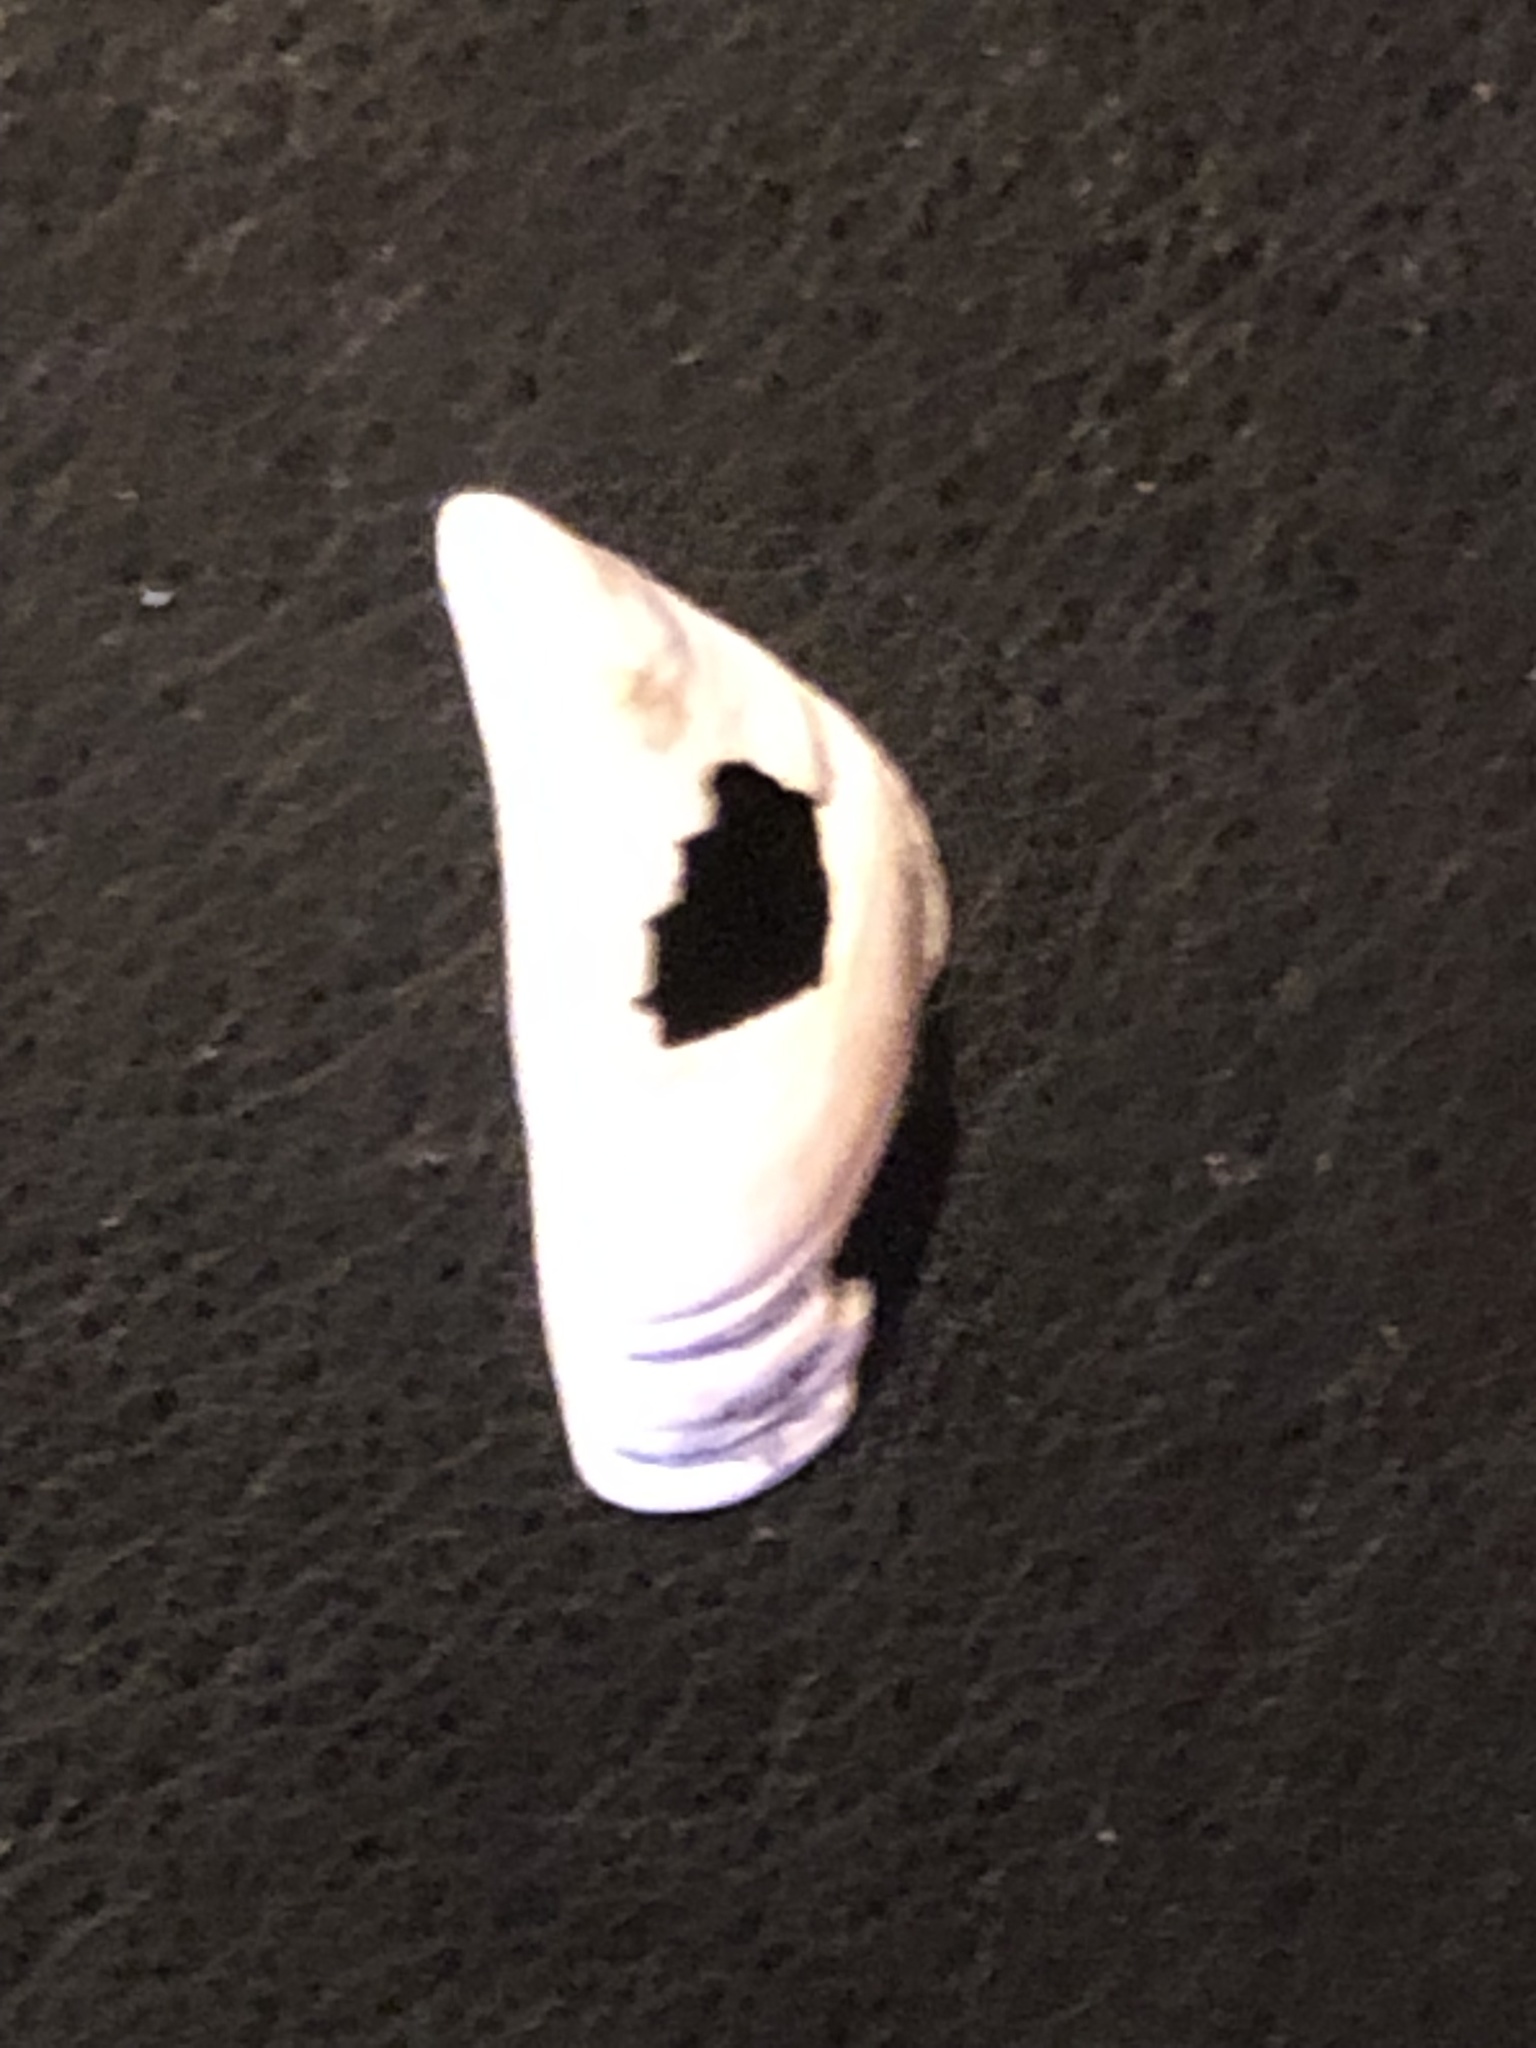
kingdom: Animalia
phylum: Mollusca
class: Bivalvia
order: Myida
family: Dreissenidae
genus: Dreissena
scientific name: Dreissena polymorpha
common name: Zebra mussel
